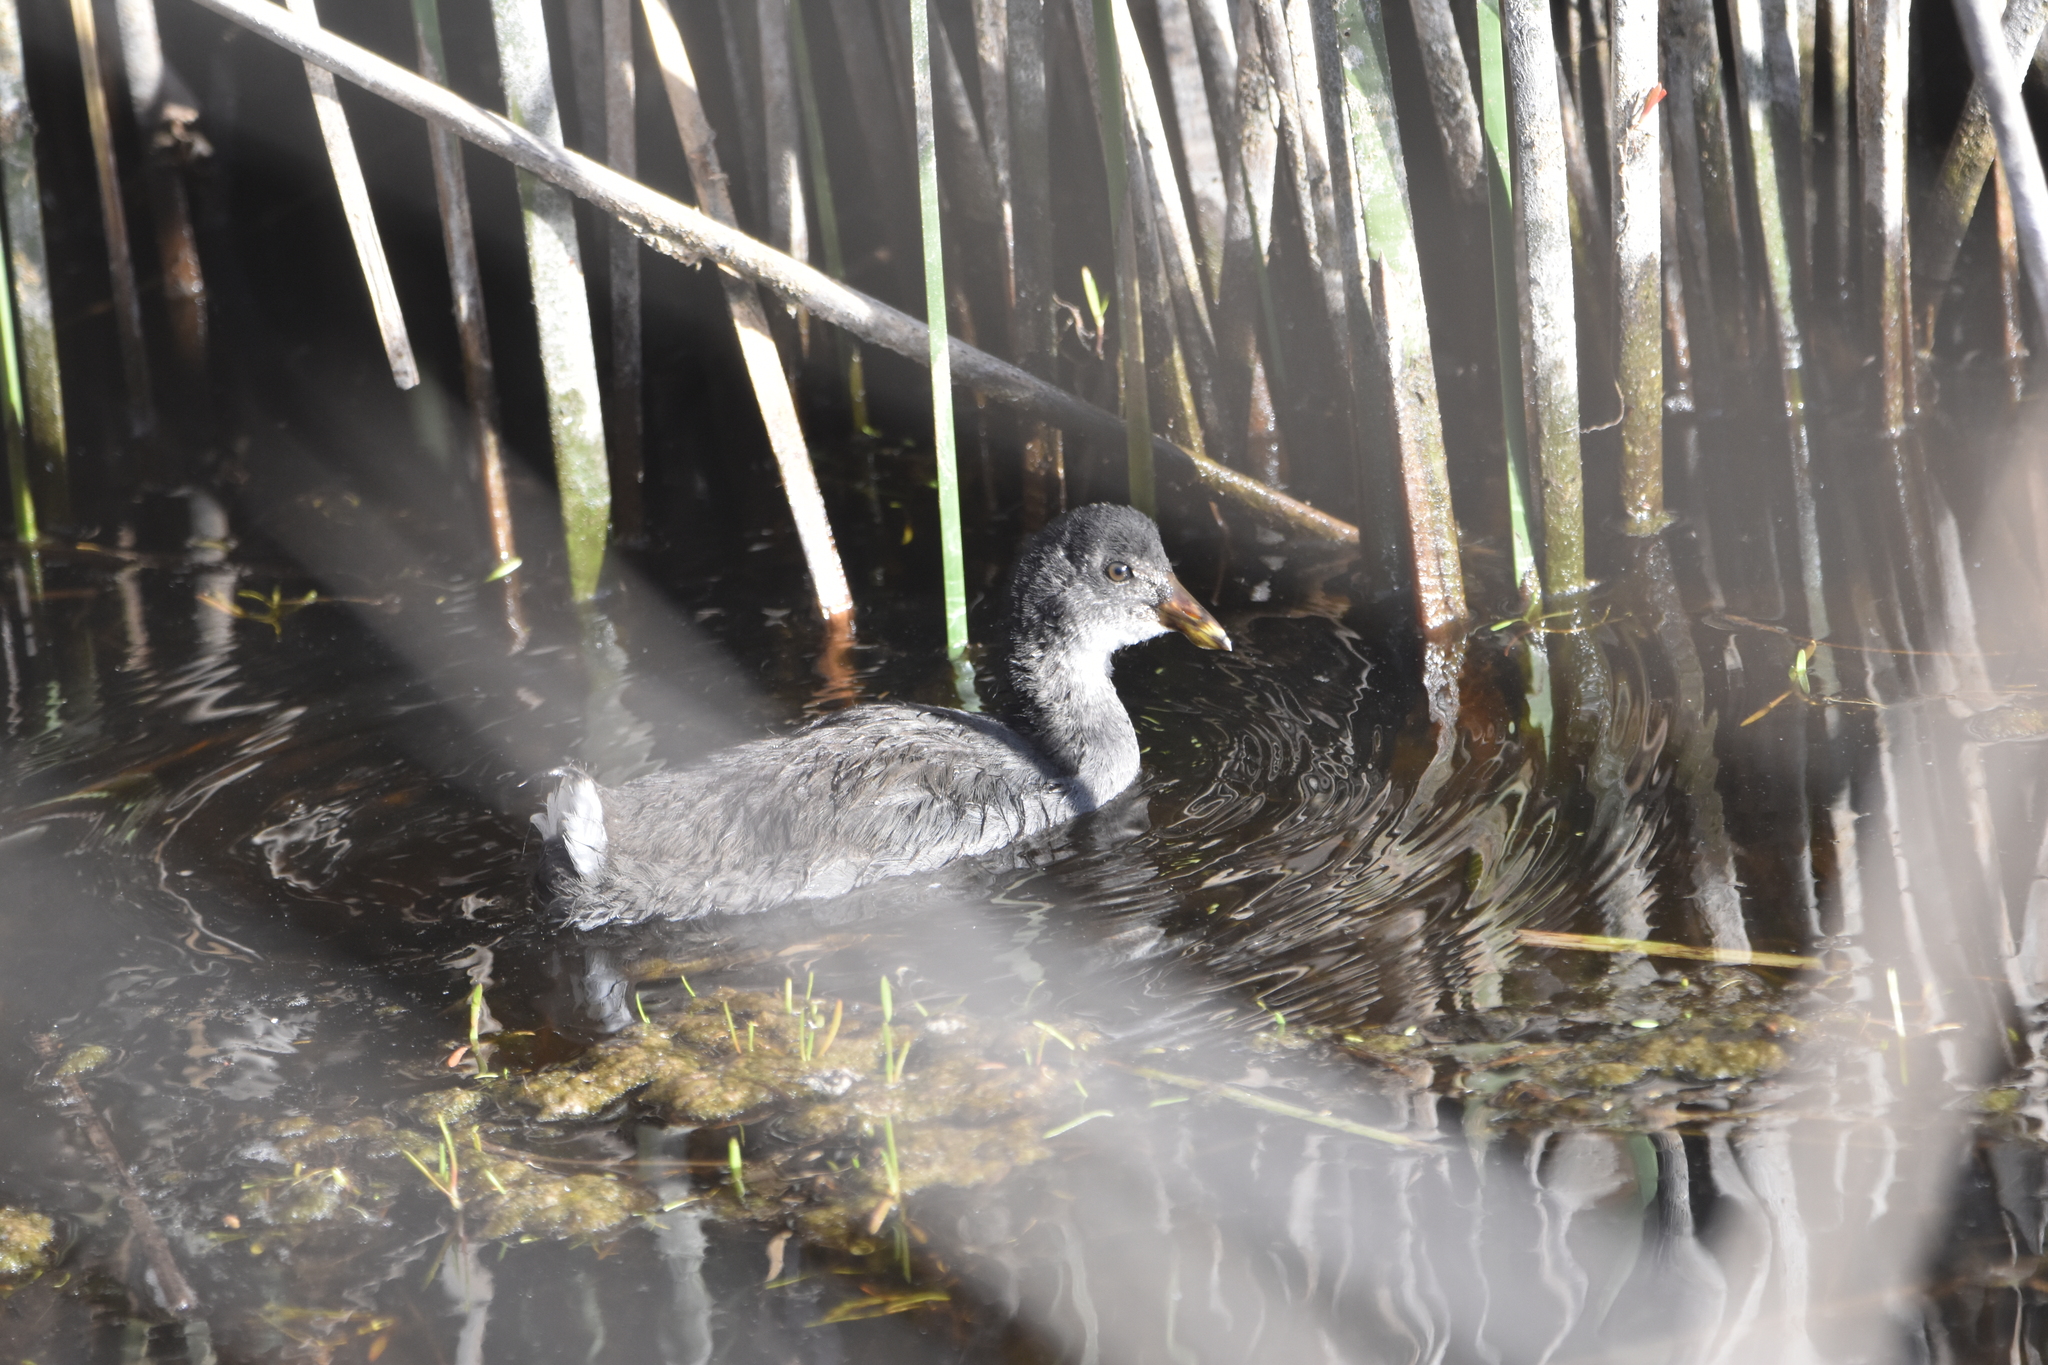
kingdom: Animalia
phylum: Chordata
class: Aves
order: Gruiformes
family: Rallidae
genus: Fulica
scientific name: Fulica rufifrons
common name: Red-fronted coot
